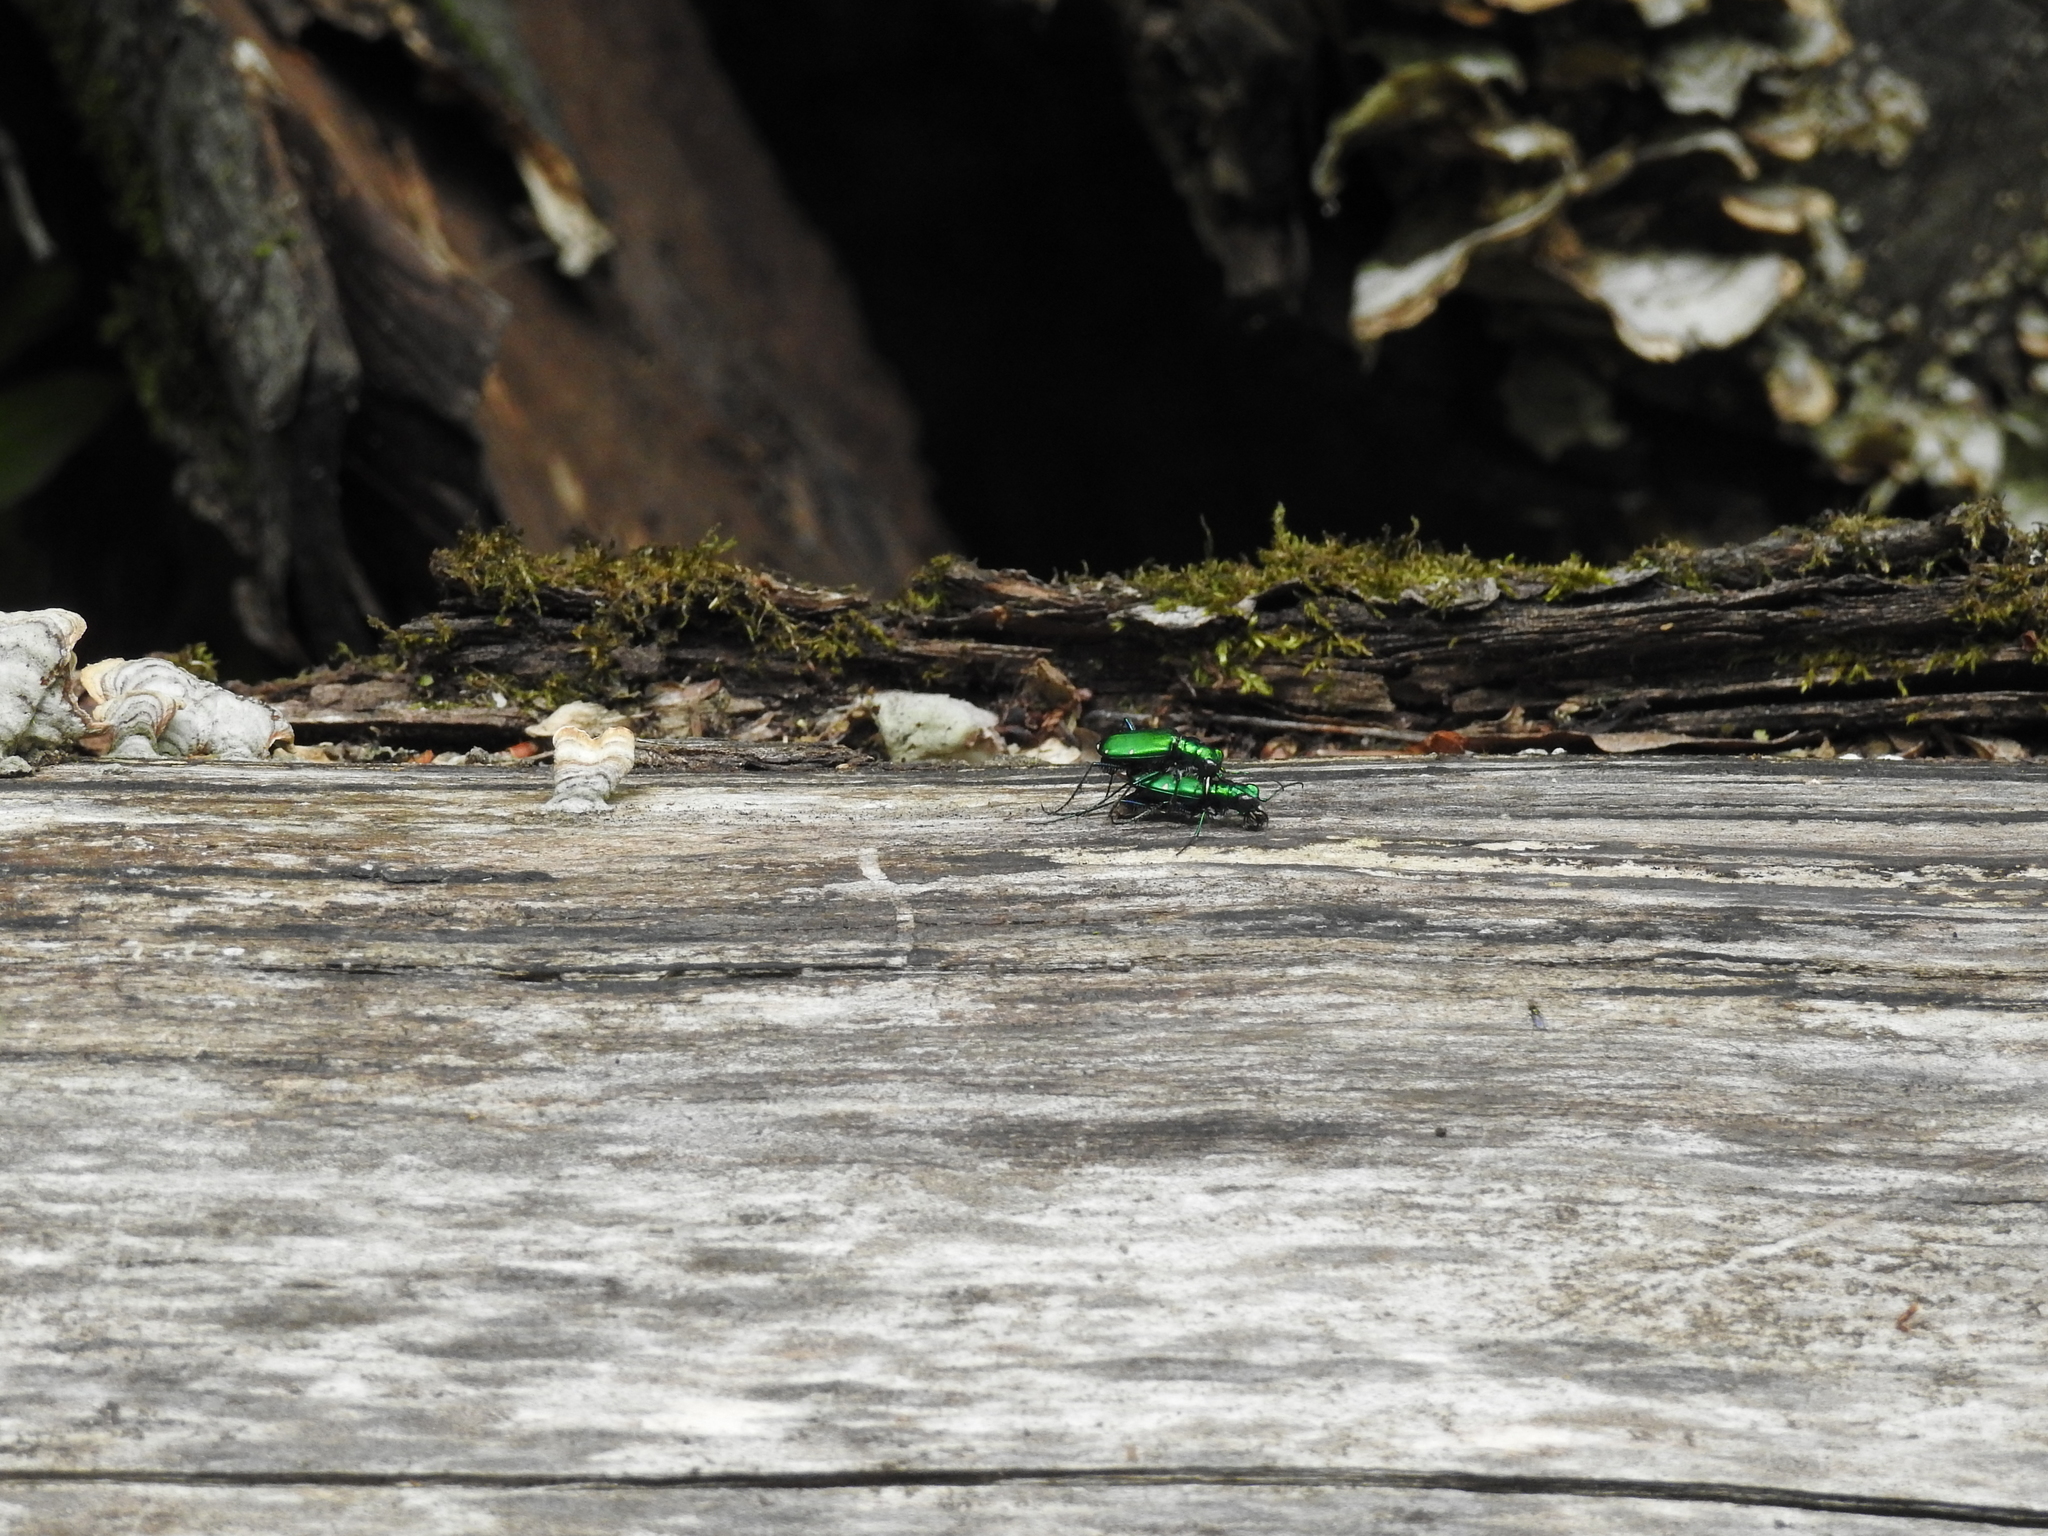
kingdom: Animalia
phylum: Arthropoda
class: Insecta
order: Coleoptera
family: Carabidae
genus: Cicindela
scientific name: Cicindela sexguttata
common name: Six-spotted tiger beetle
